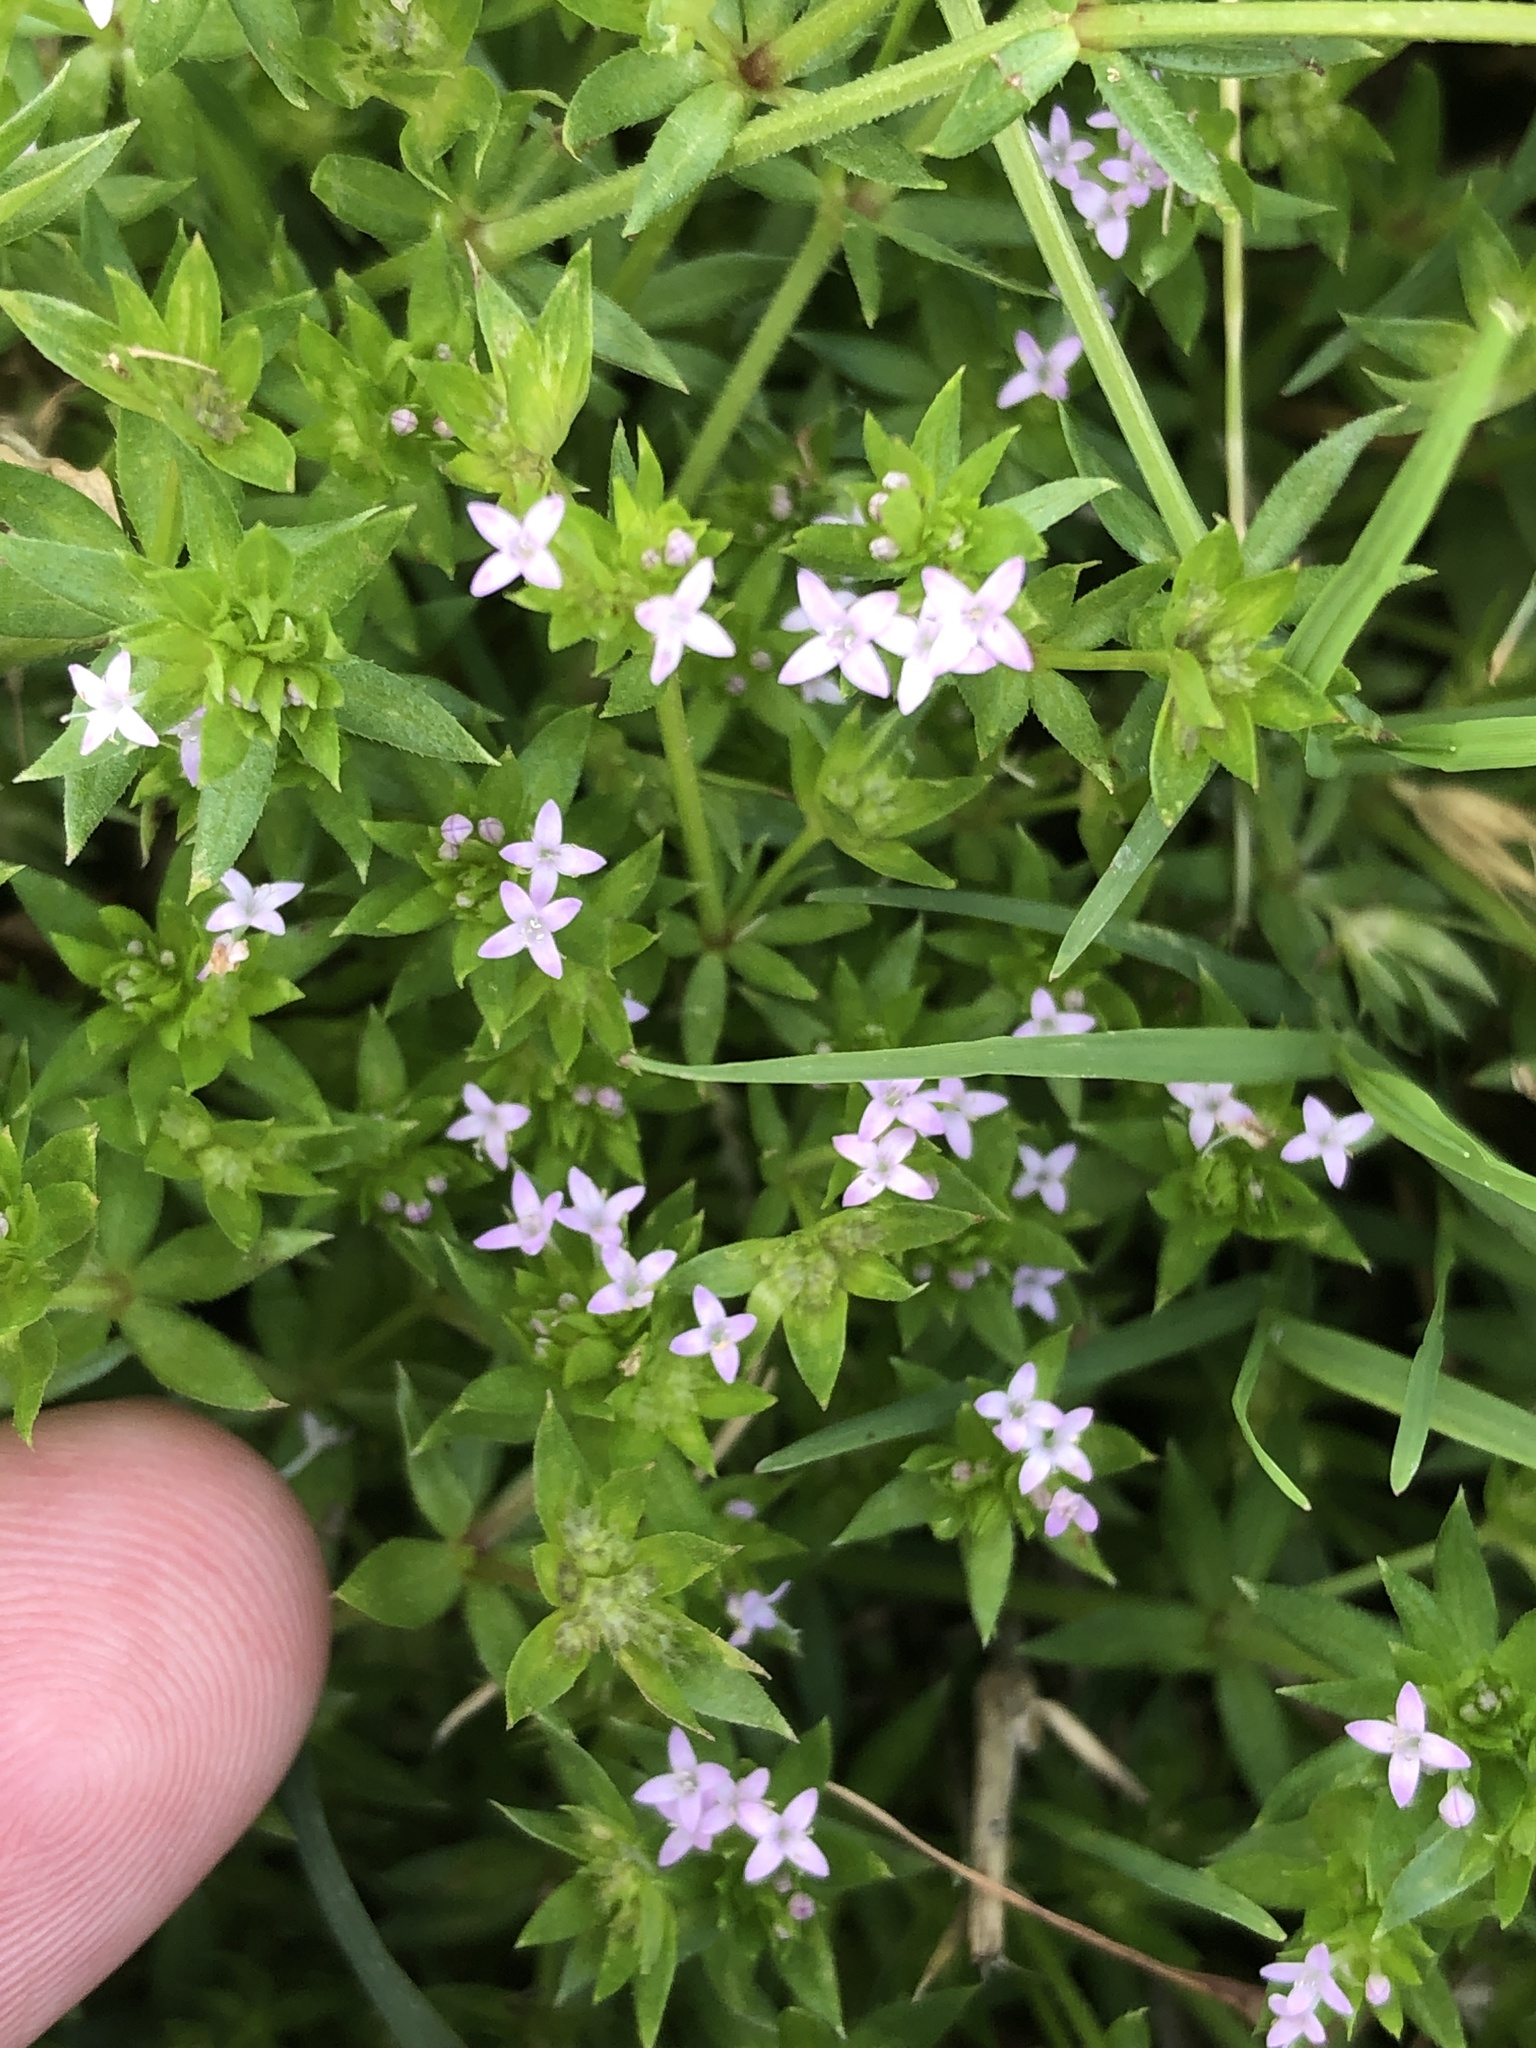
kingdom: Plantae
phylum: Tracheophyta
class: Magnoliopsida
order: Gentianales
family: Rubiaceae
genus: Sherardia
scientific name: Sherardia arvensis
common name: Field madder
